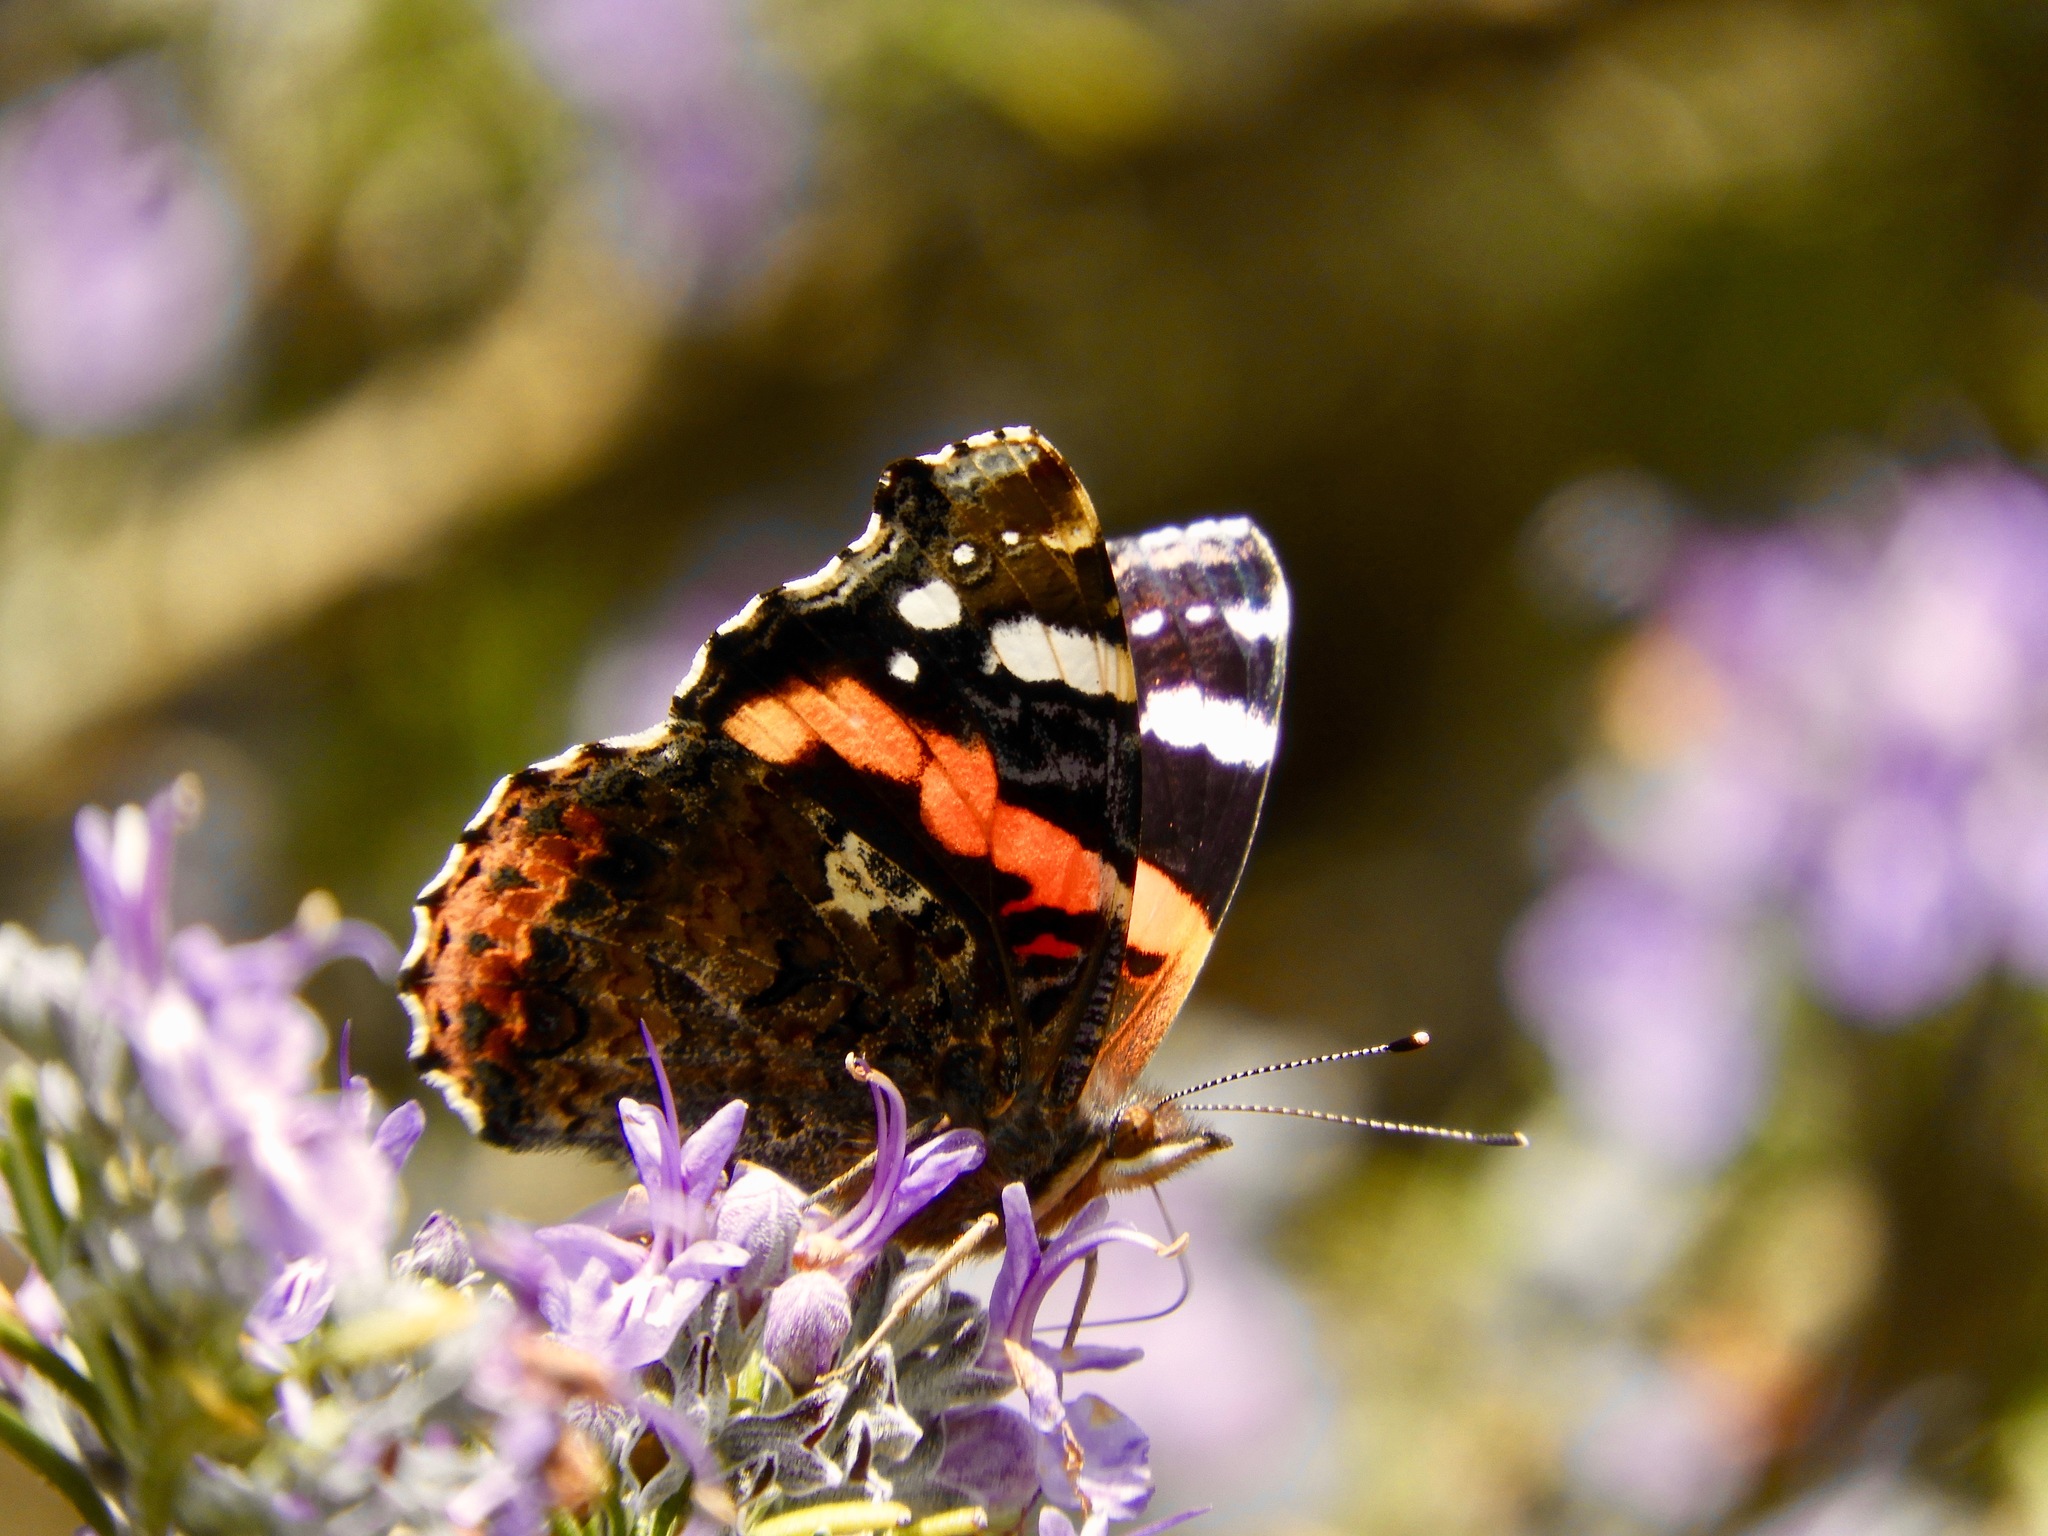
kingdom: Animalia
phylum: Arthropoda
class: Insecta
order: Lepidoptera
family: Nymphalidae
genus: Vanessa
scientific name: Vanessa atalanta
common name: Red admiral
